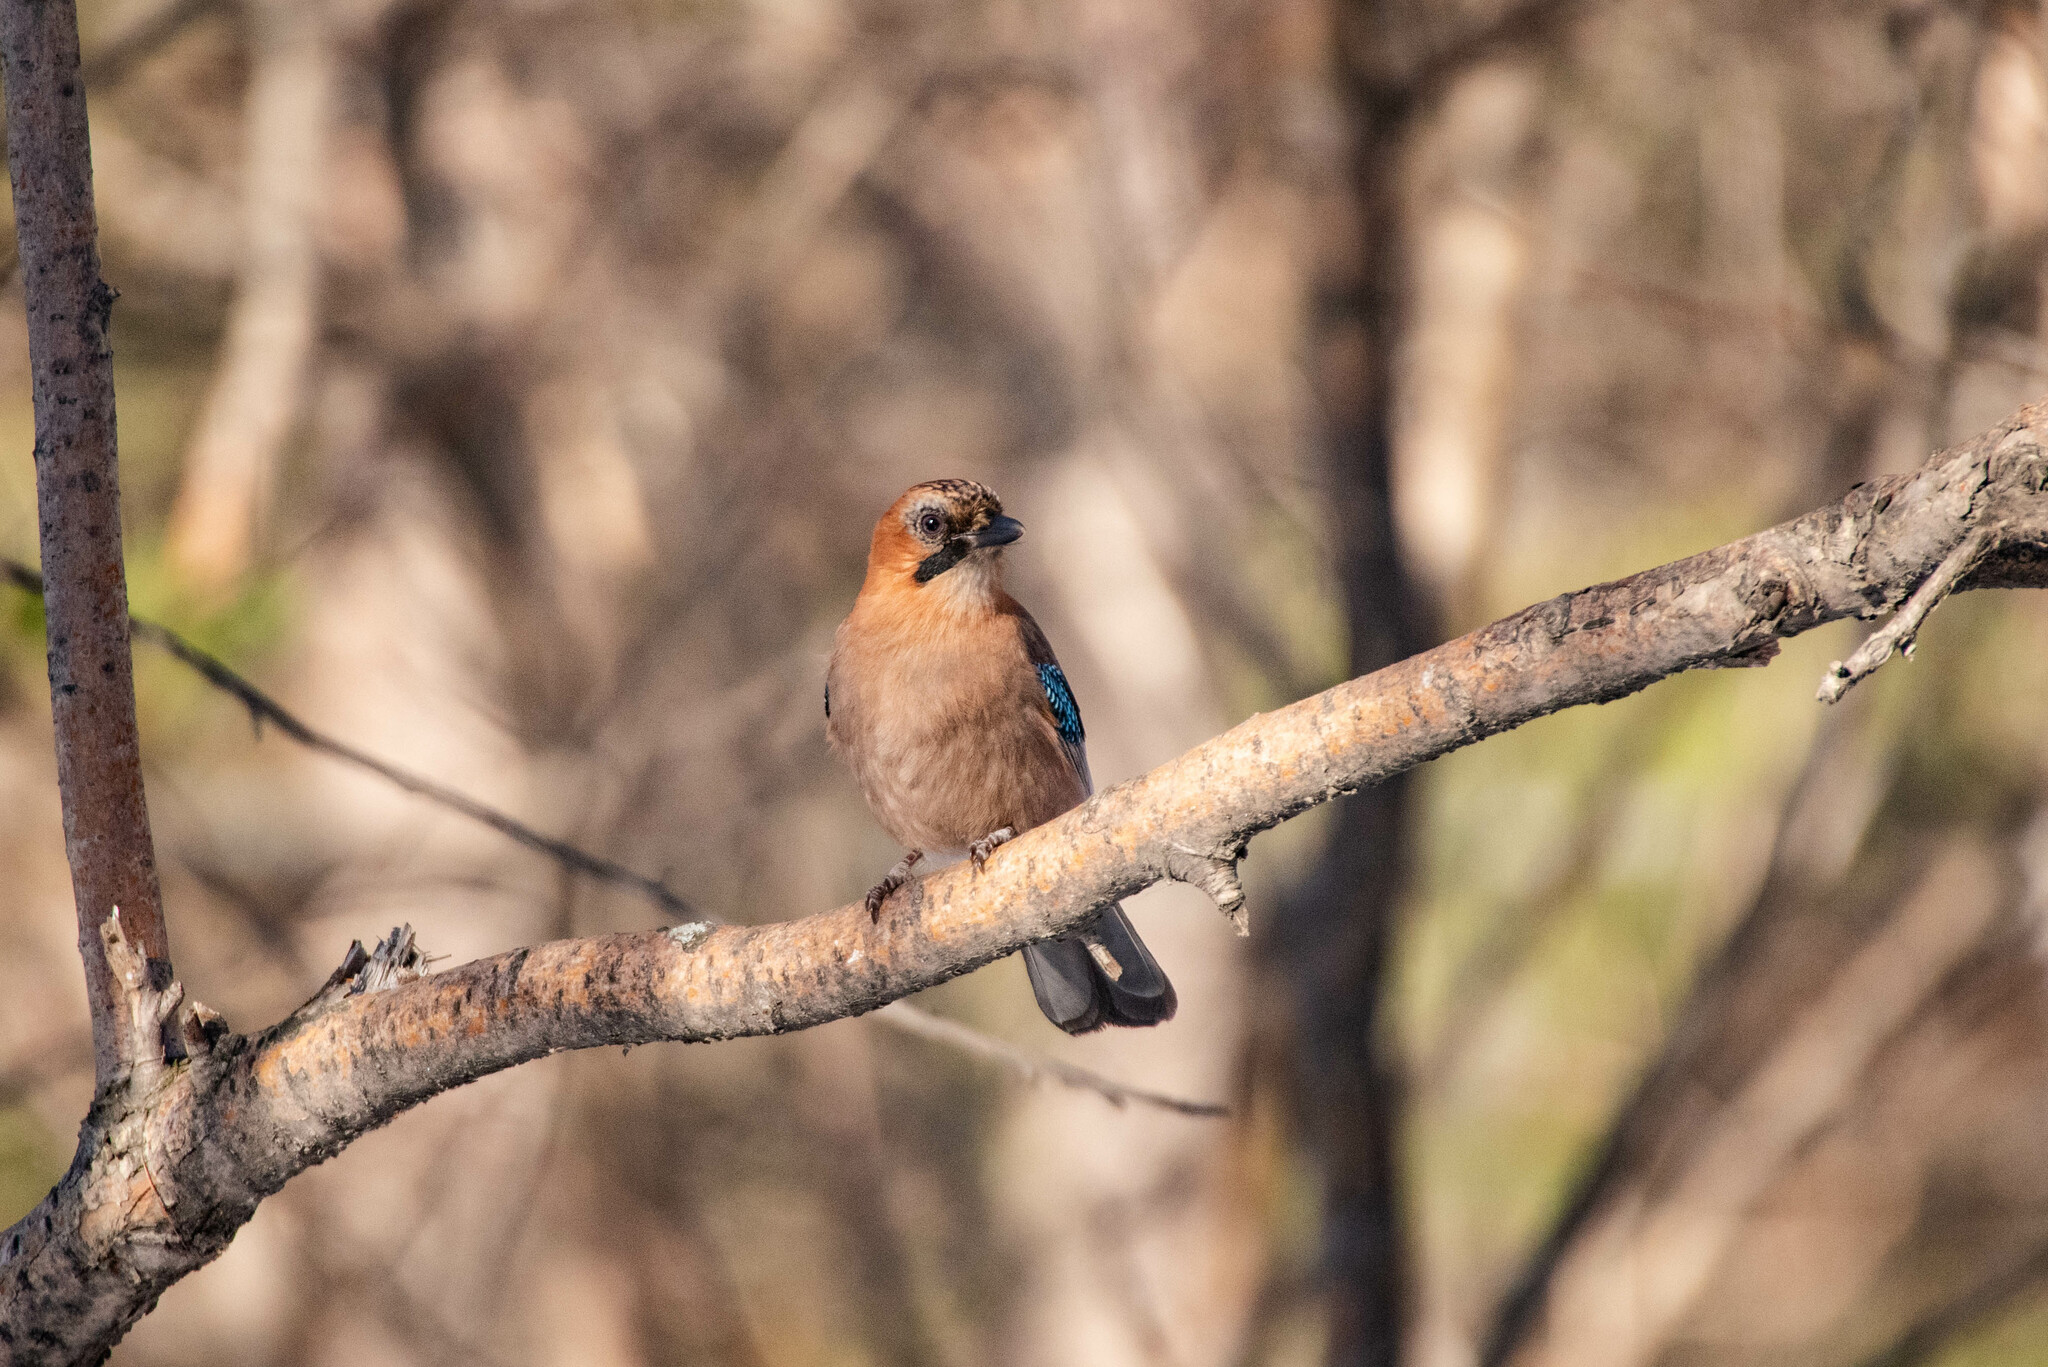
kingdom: Animalia
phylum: Chordata
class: Aves
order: Passeriformes
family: Corvidae
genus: Garrulus
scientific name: Garrulus glandarius
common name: Eurasian jay
